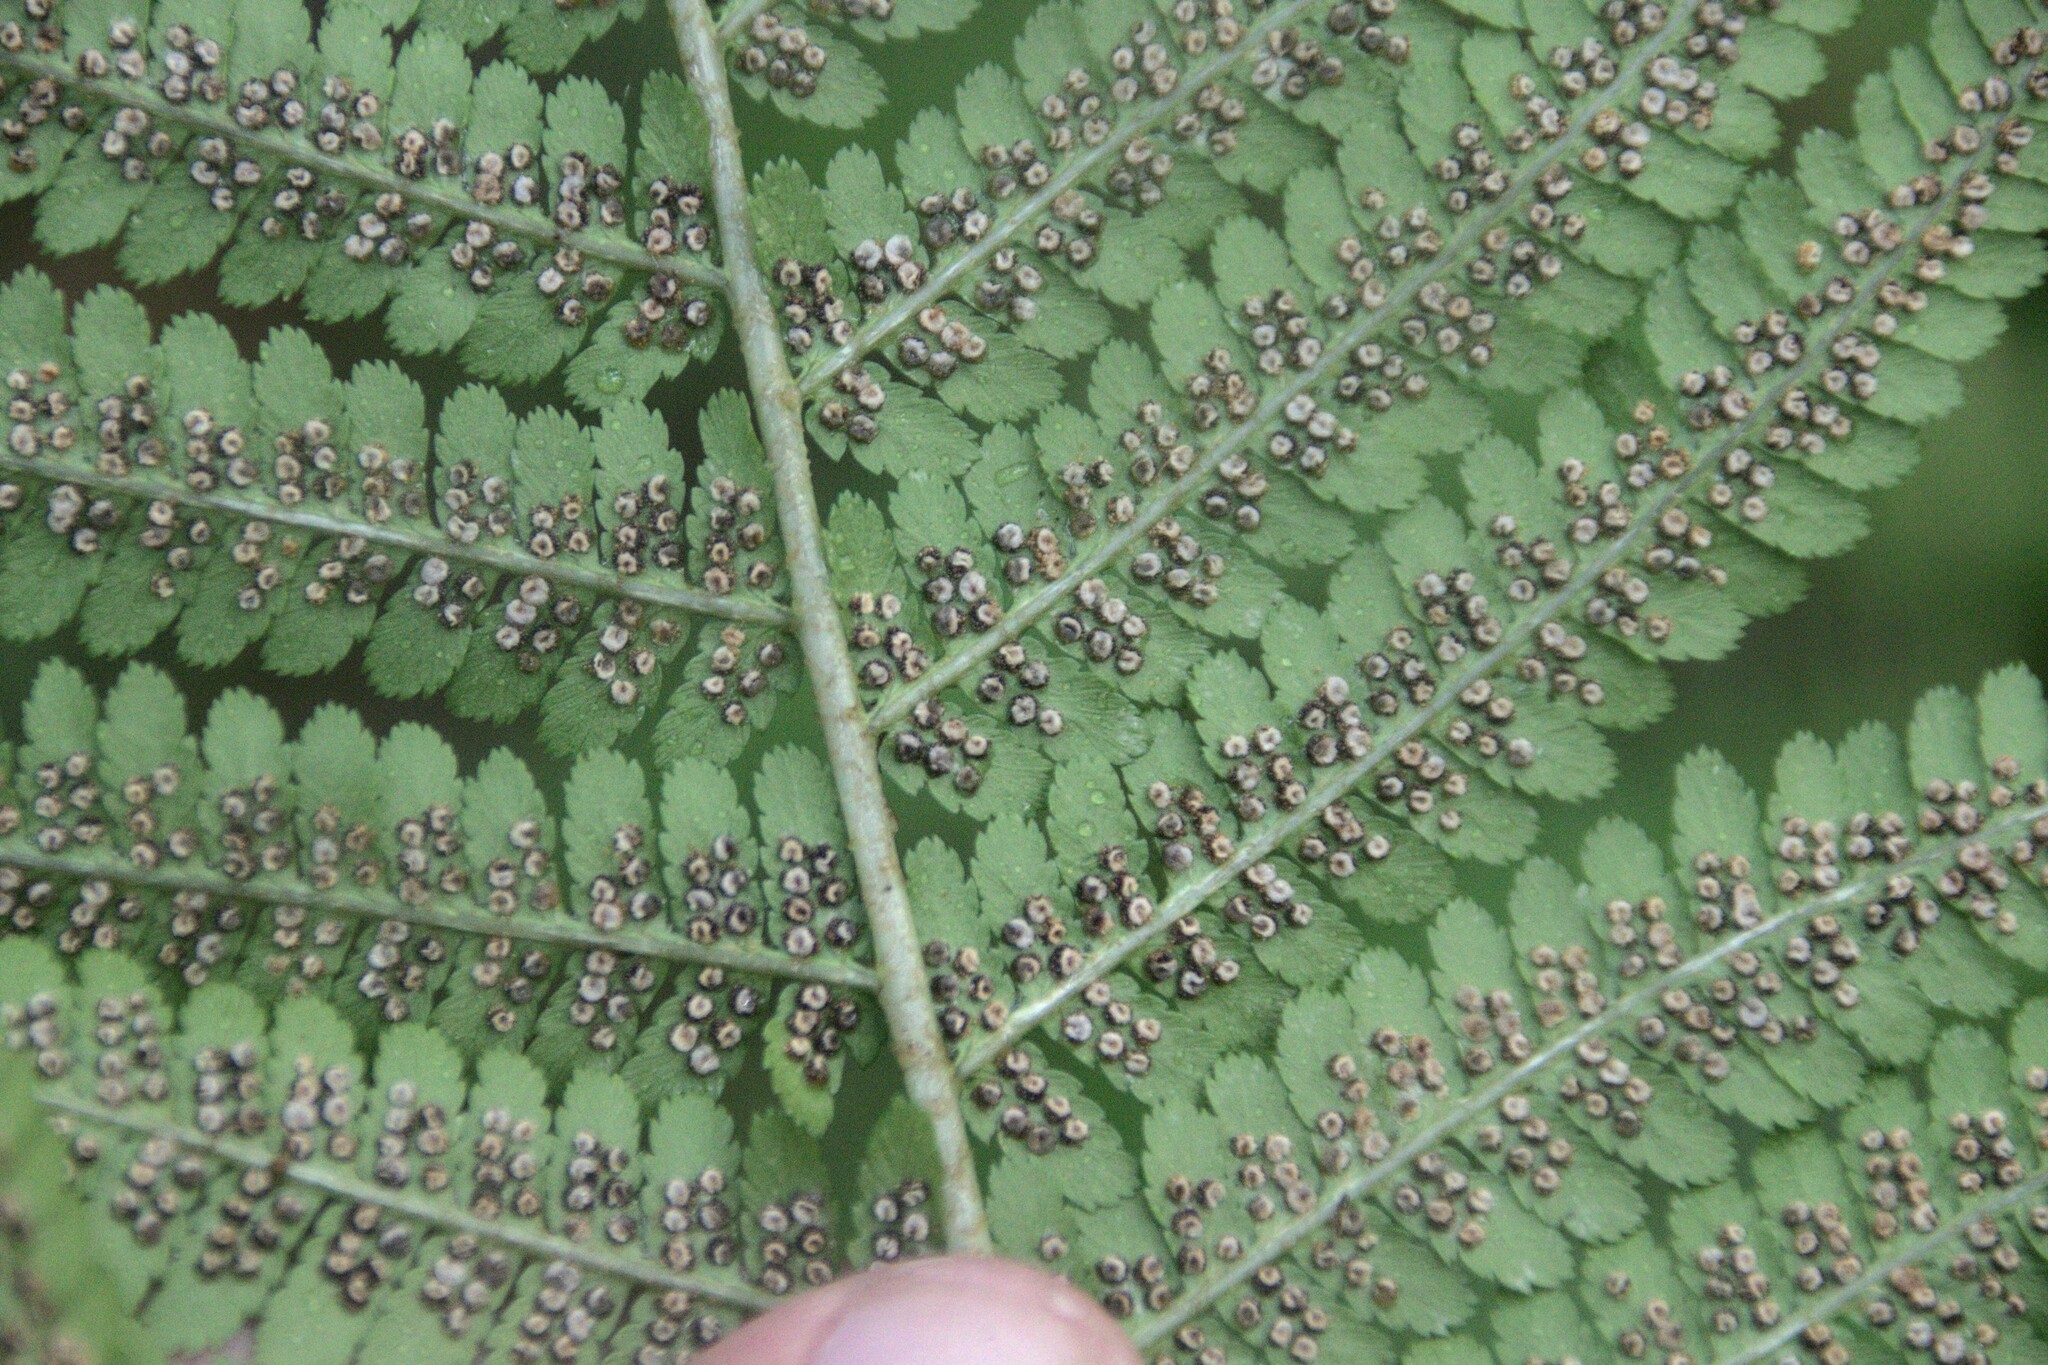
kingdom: Plantae
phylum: Tracheophyta
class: Polypodiopsida
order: Polypodiales
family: Dryopteridaceae
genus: Dryopteris
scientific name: Dryopteris filix-mas
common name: Male fern
